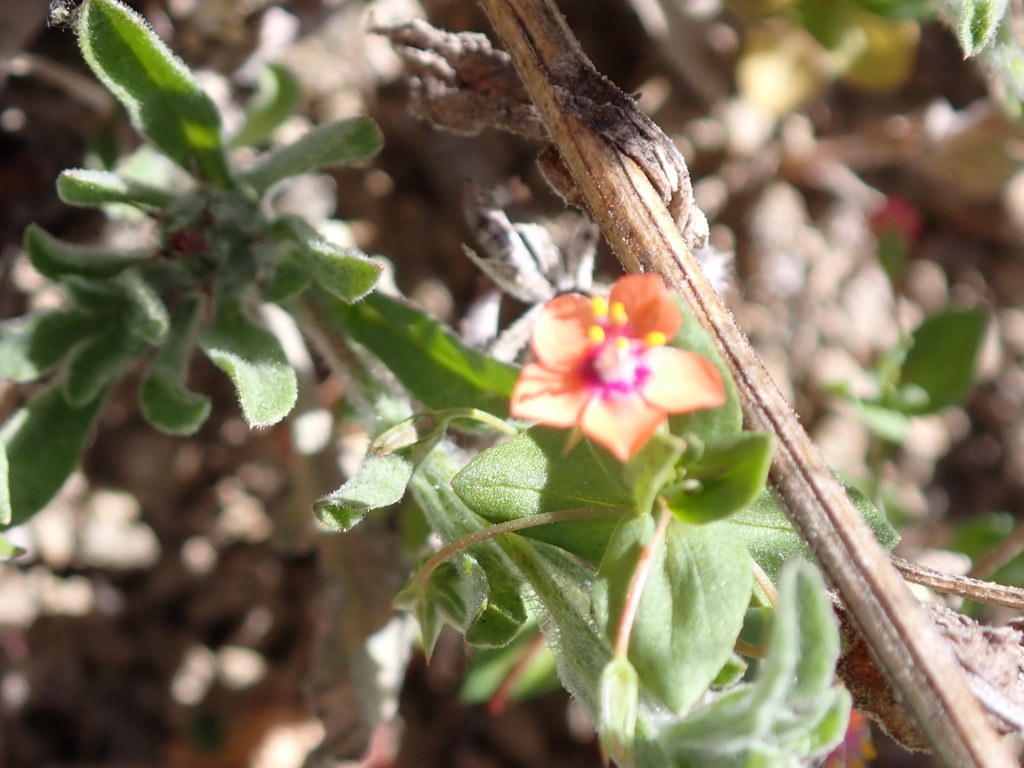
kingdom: Plantae
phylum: Tracheophyta
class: Magnoliopsida
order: Ericales
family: Primulaceae
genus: Lysimachia
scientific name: Lysimachia arvensis
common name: Scarlet pimpernel
